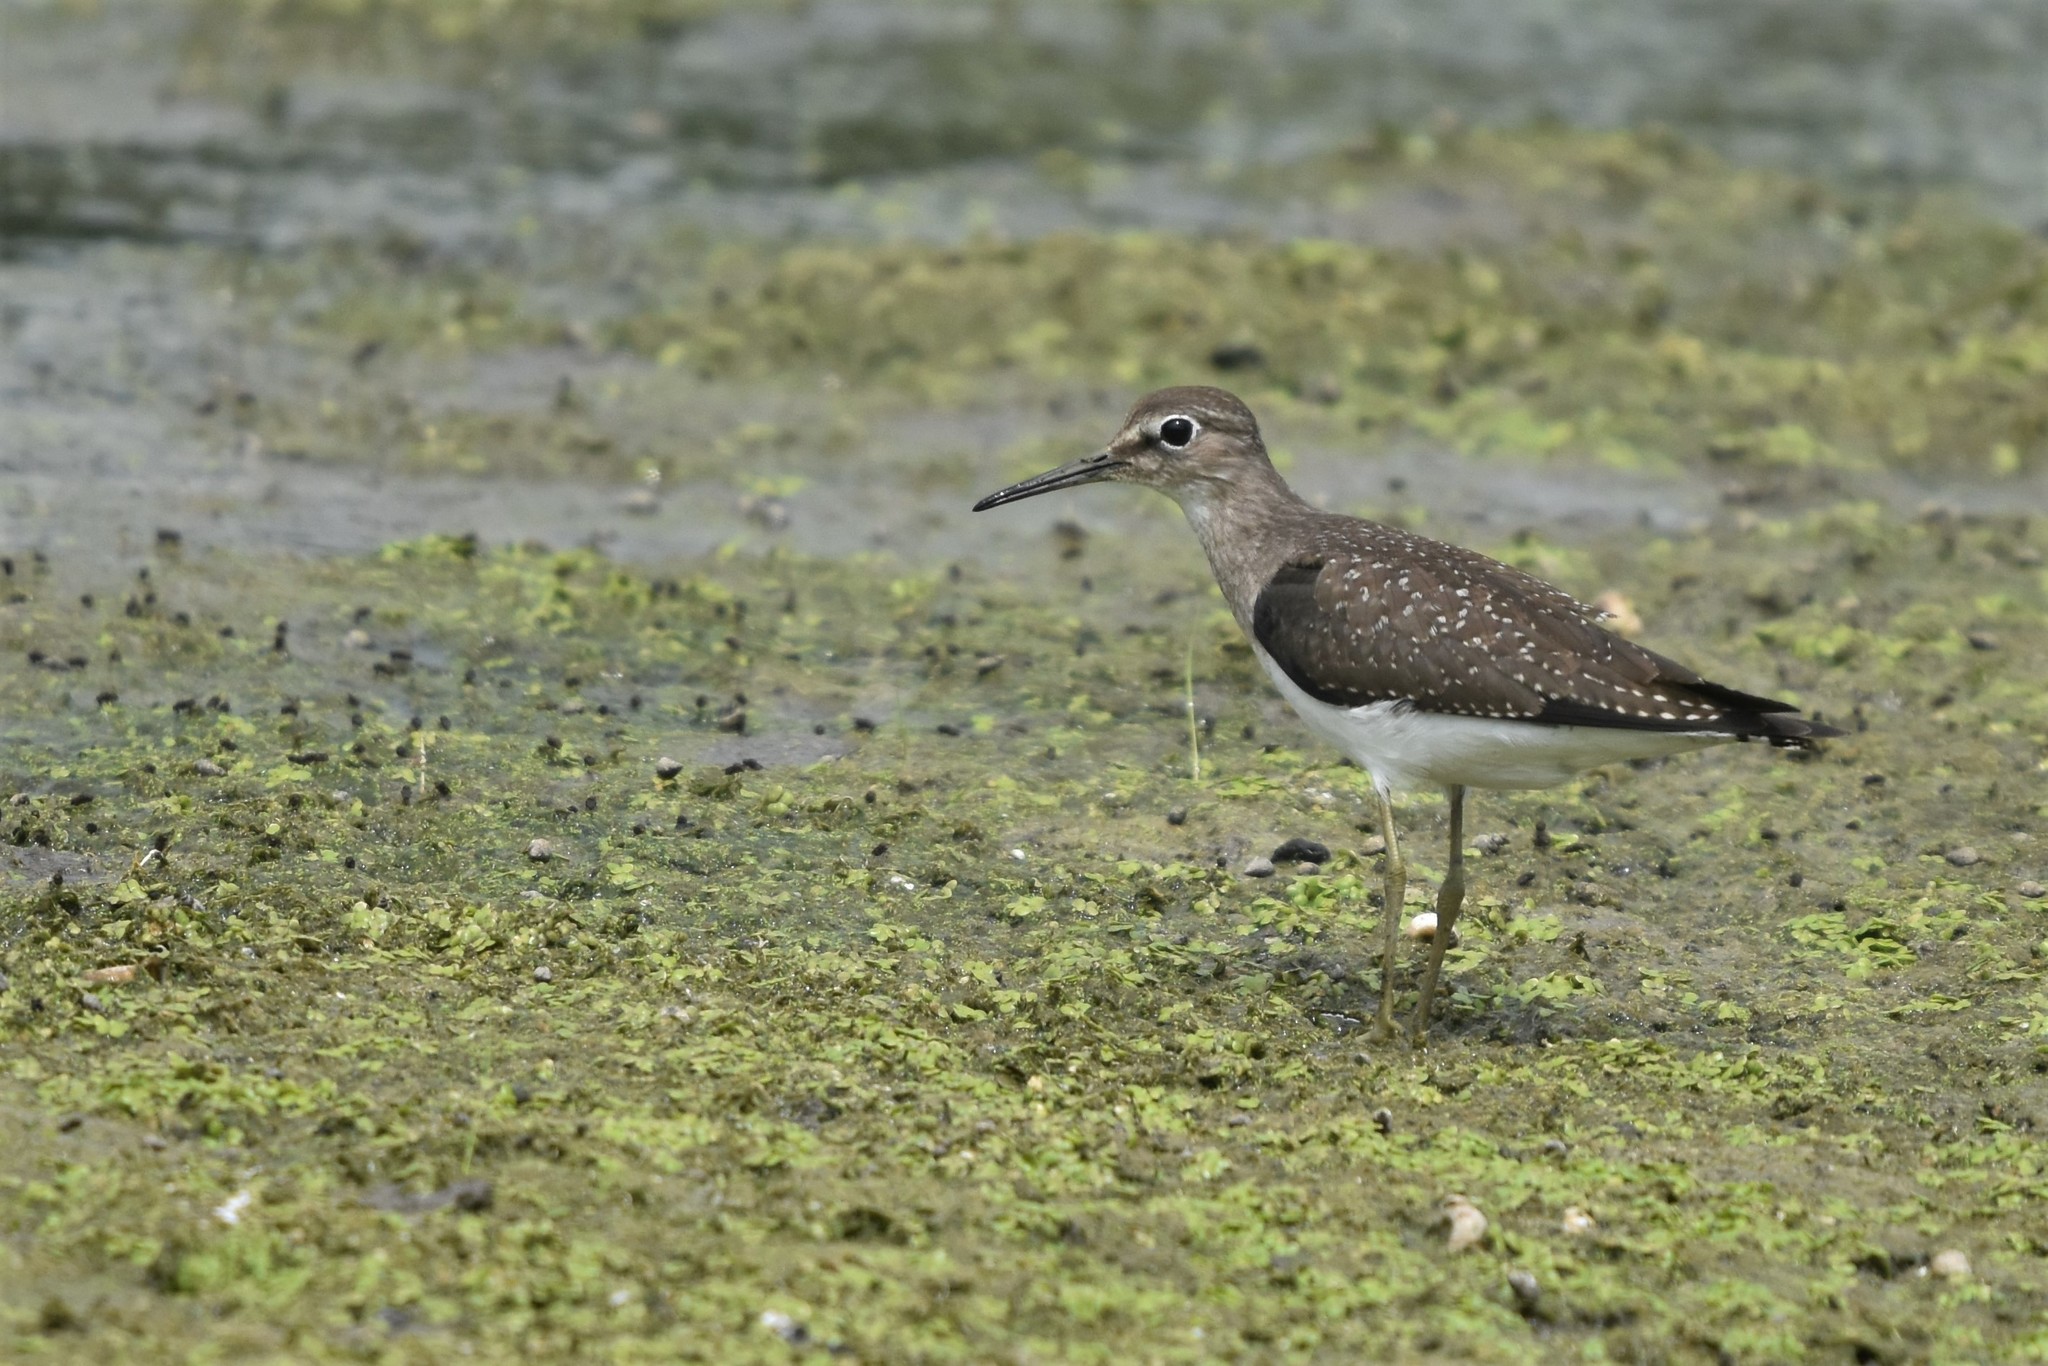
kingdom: Animalia
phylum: Chordata
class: Aves
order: Charadriiformes
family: Scolopacidae
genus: Tringa
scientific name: Tringa solitaria
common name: Solitary sandpiper
